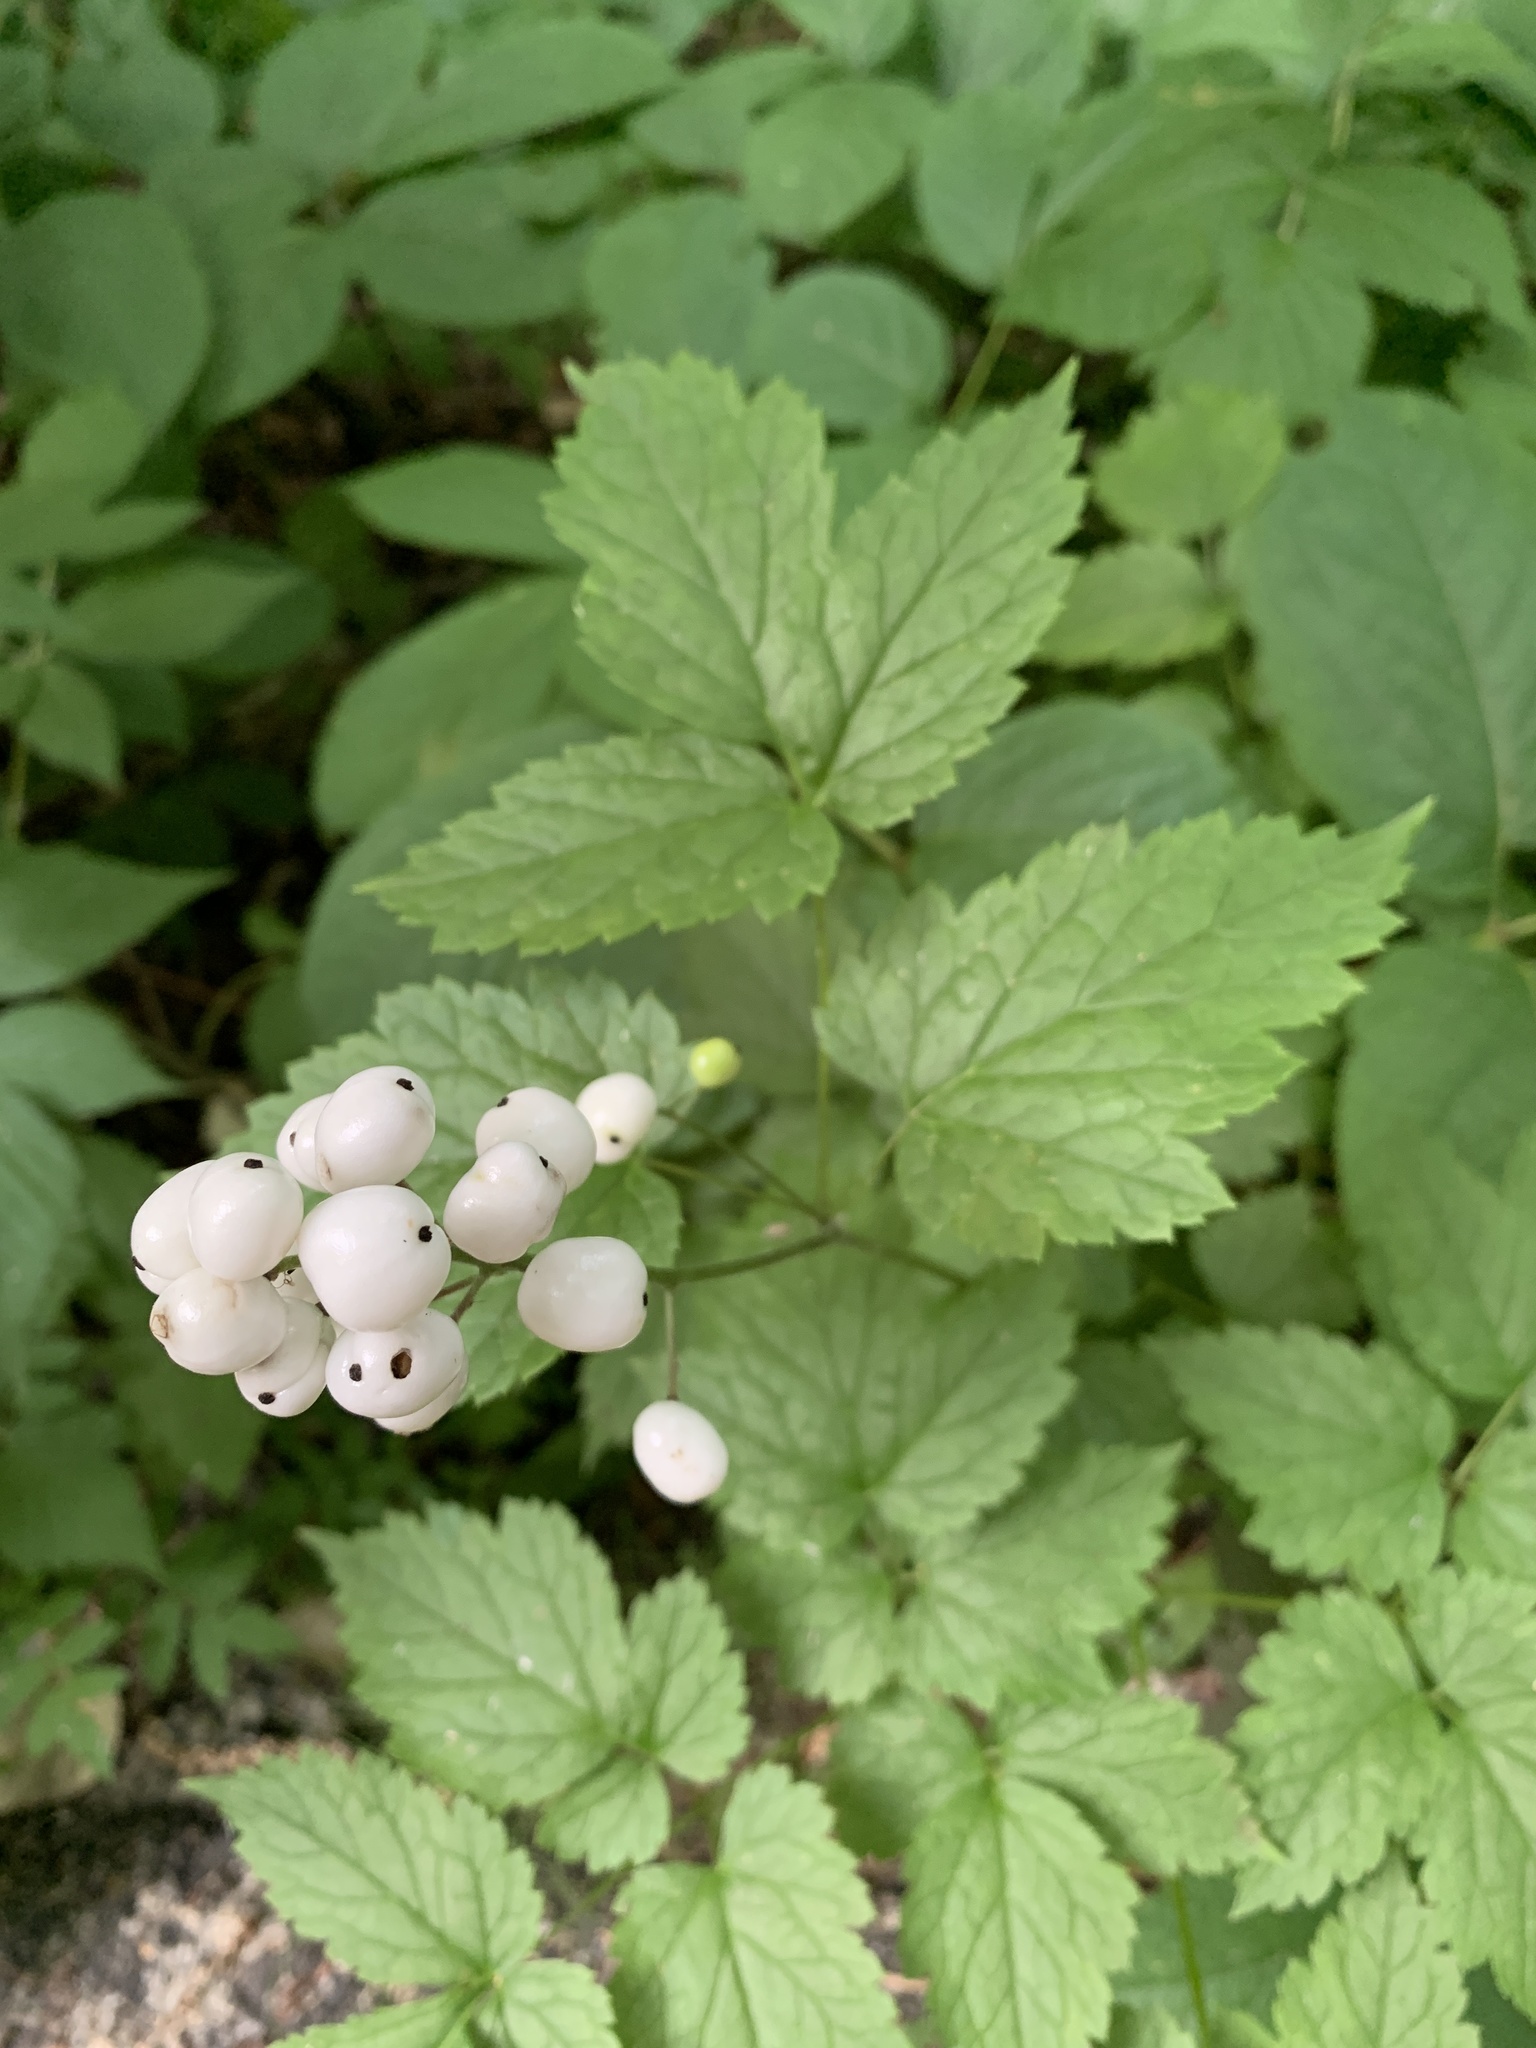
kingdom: Plantae
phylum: Tracheophyta
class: Magnoliopsida
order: Ranunculales
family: Ranunculaceae
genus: Actaea
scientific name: Actaea rubra
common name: Red baneberry
